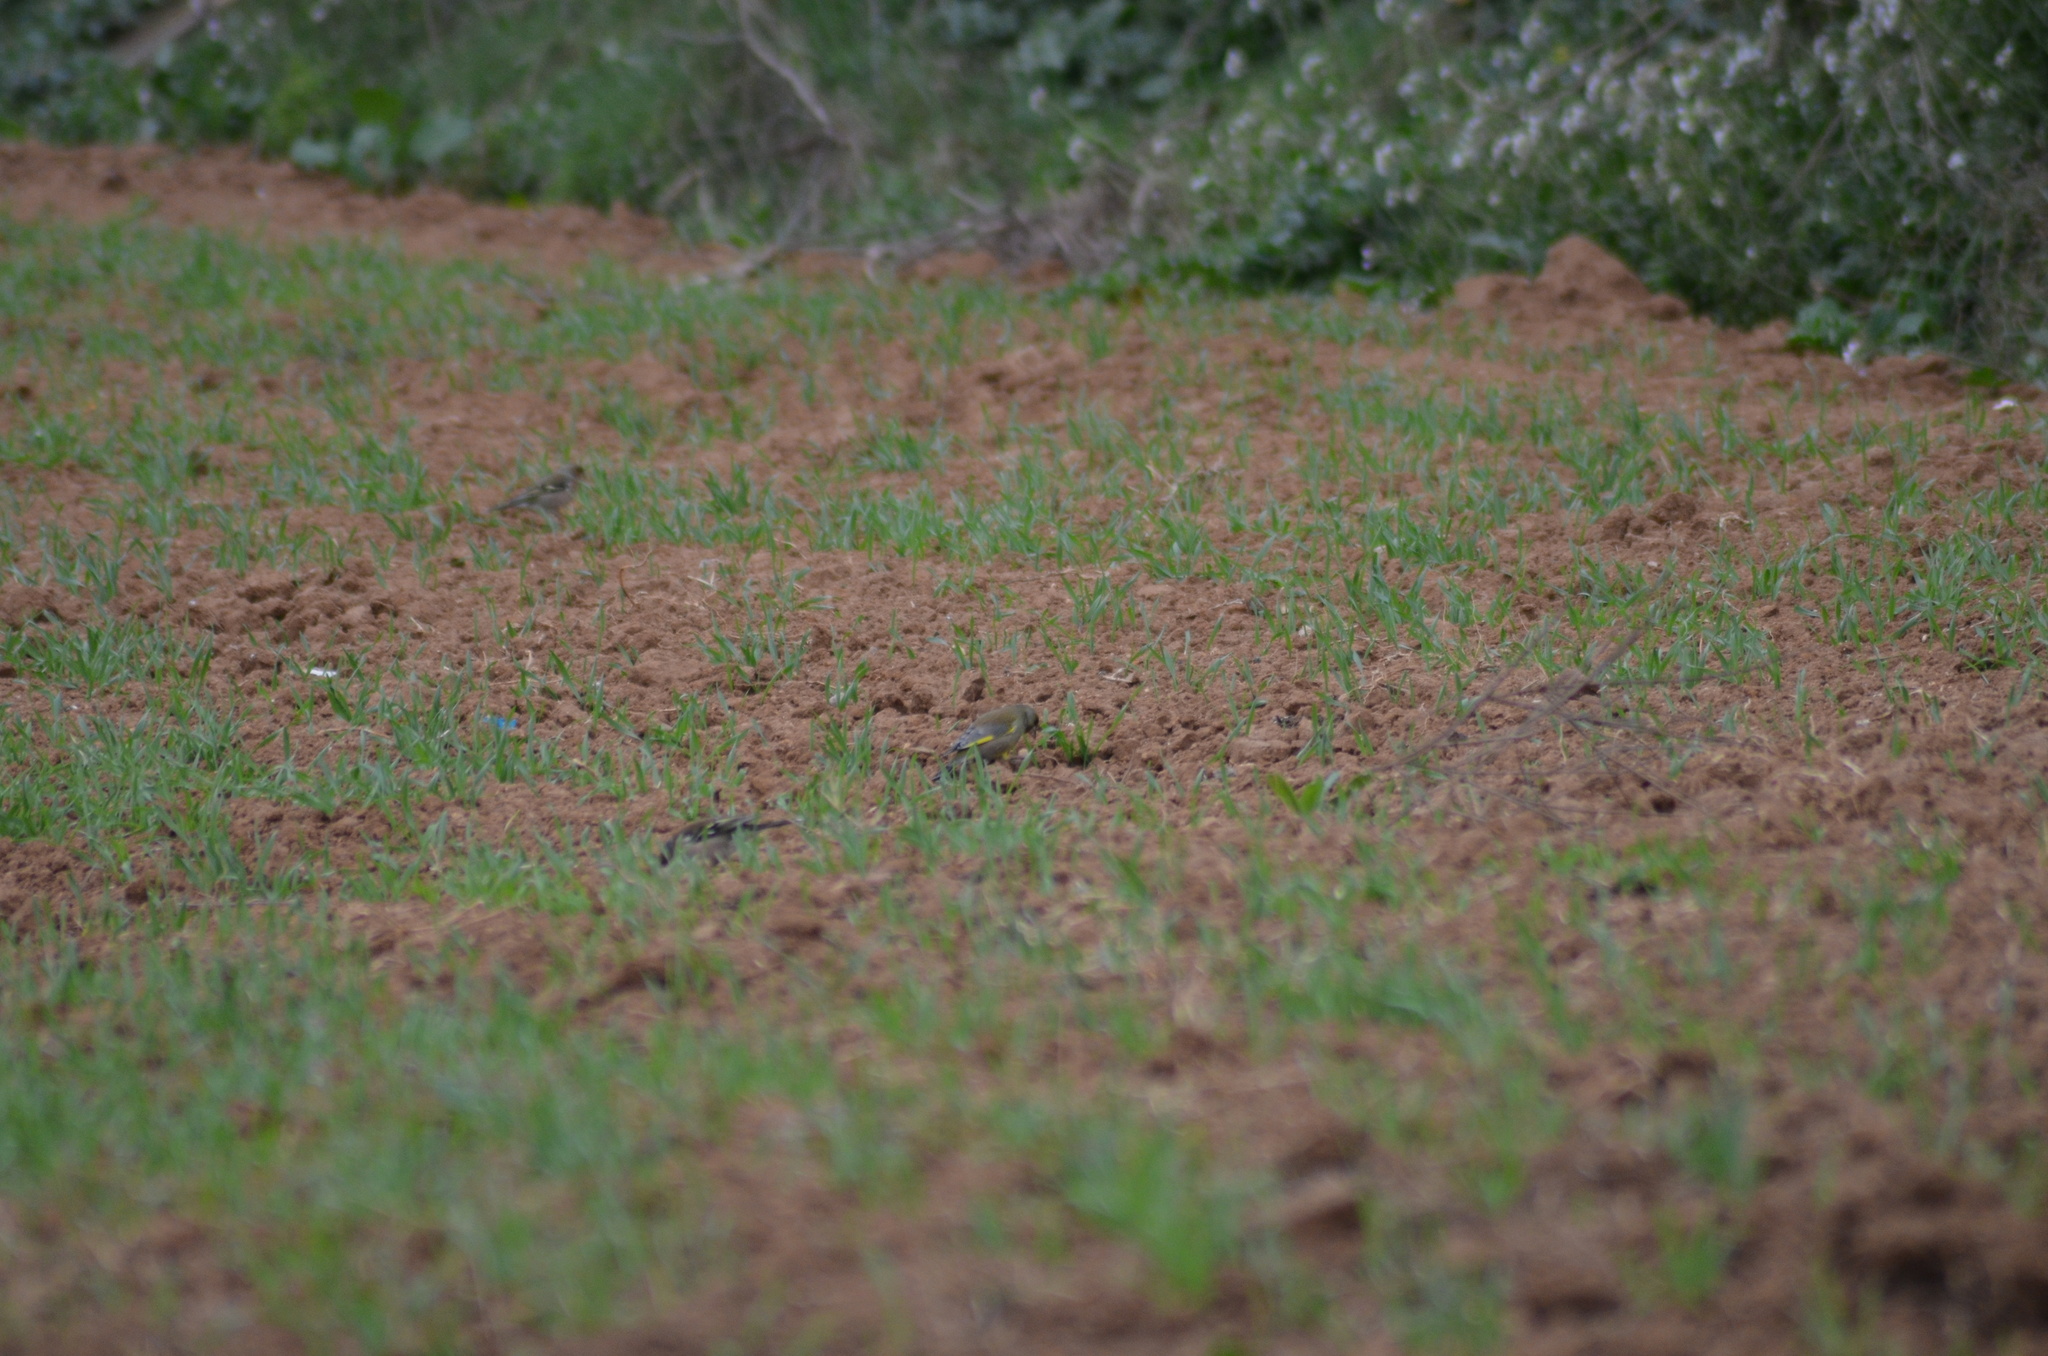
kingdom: Plantae
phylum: Tracheophyta
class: Liliopsida
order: Poales
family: Poaceae
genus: Chloris
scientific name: Chloris chloris
